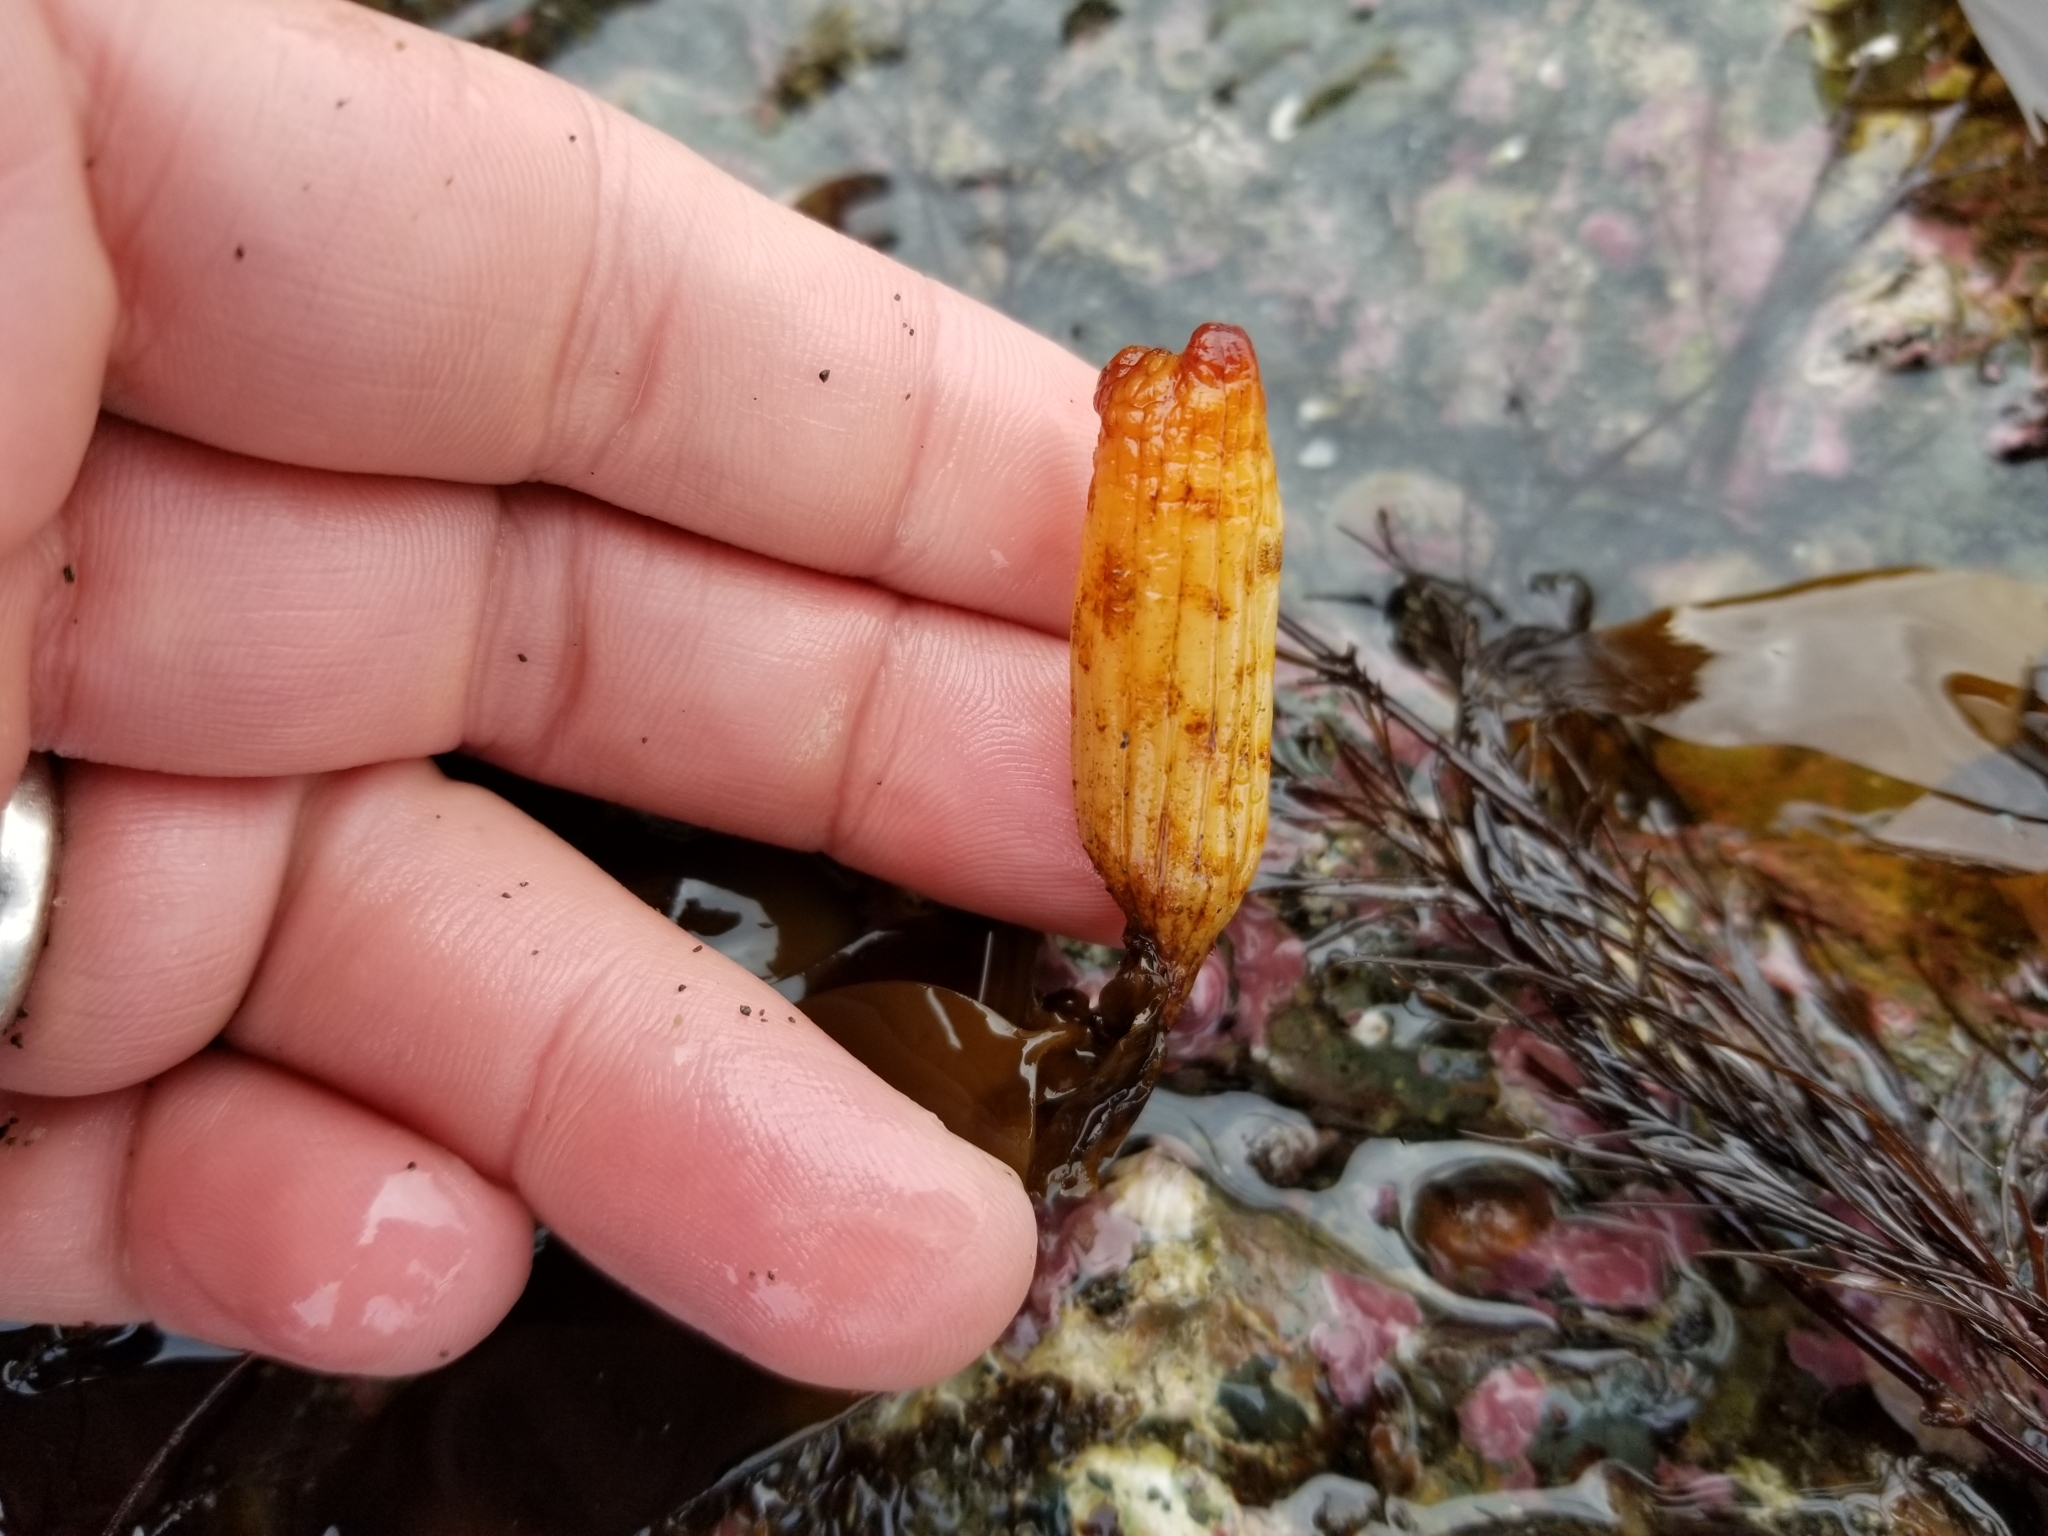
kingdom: Animalia
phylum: Chordata
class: Ascidiacea
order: Stolidobranchia
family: Styelidae
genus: Styela
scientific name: Styela yakutatensis
